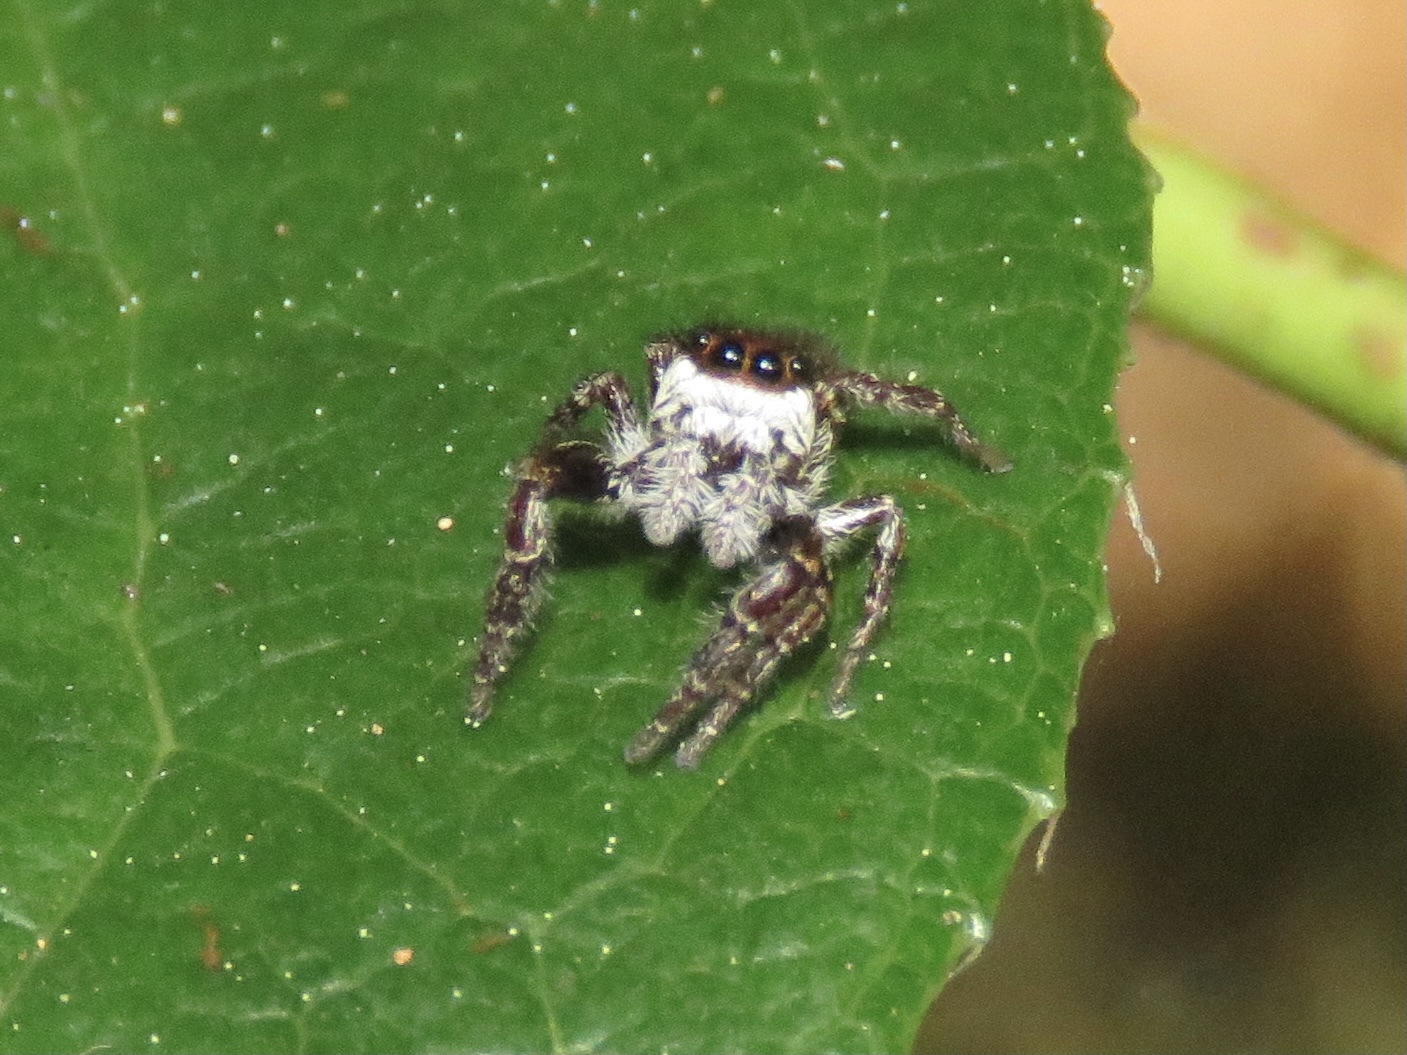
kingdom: Animalia
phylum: Arthropoda
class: Arachnida
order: Araneae
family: Salticidae
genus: Phanias
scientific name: Phanias albeolus
